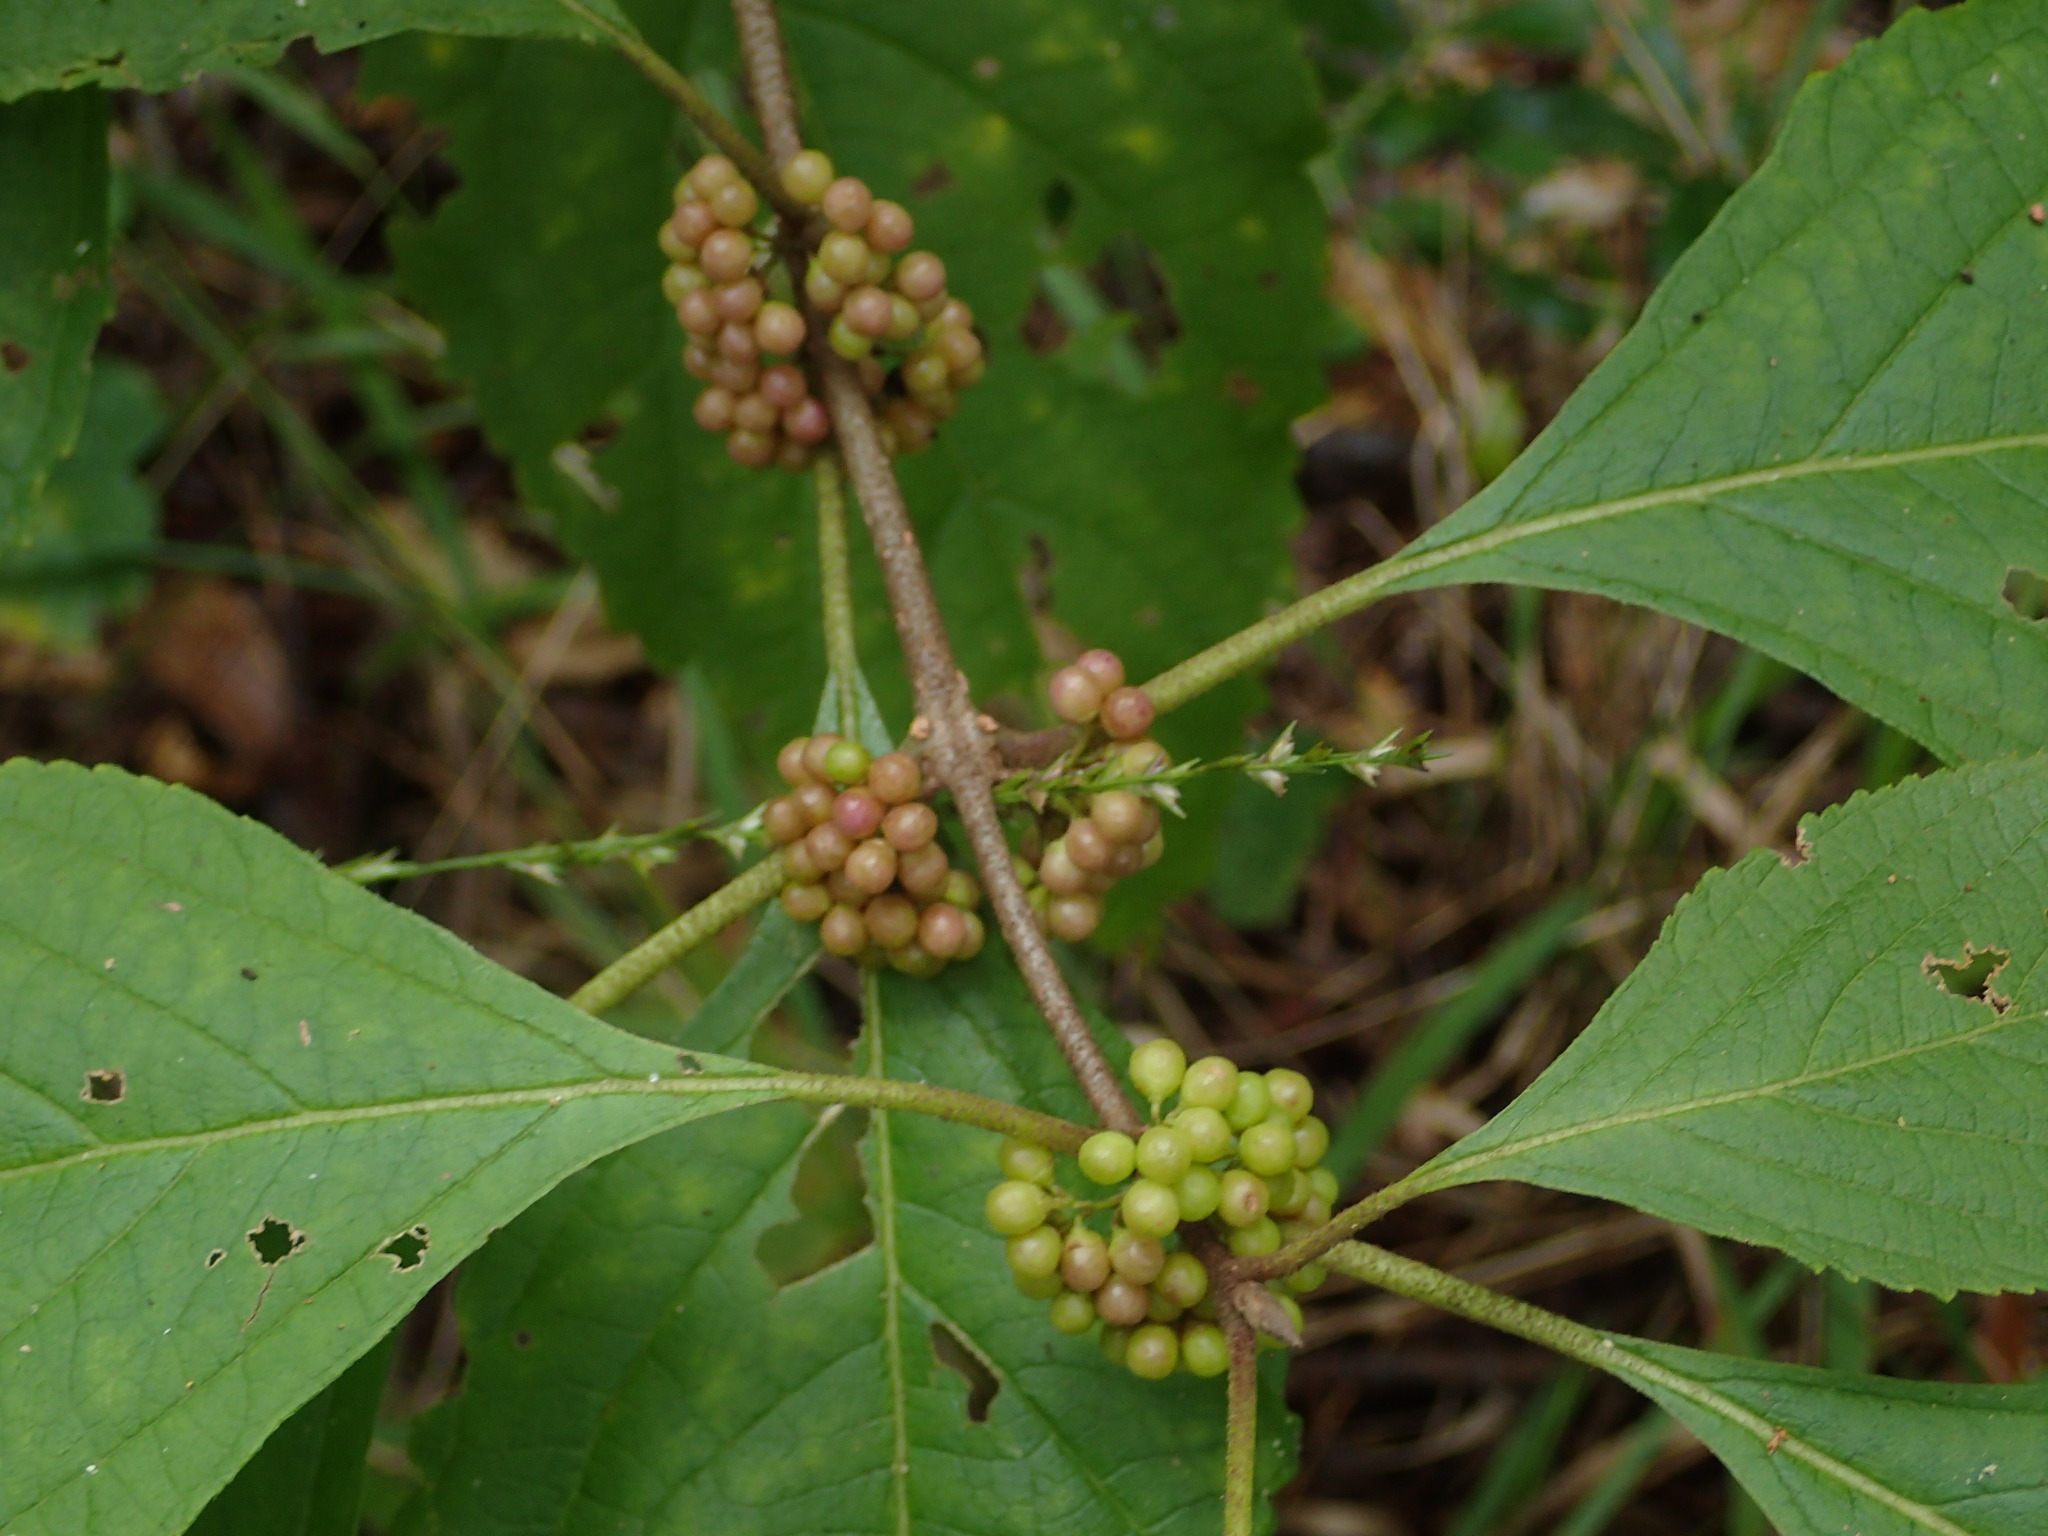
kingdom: Plantae
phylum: Tracheophyta
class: Magnoliopsida
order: Lamiales
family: Lamiaceae
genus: Callicarpa
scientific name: Callicarpa americana
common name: American beautyberry
